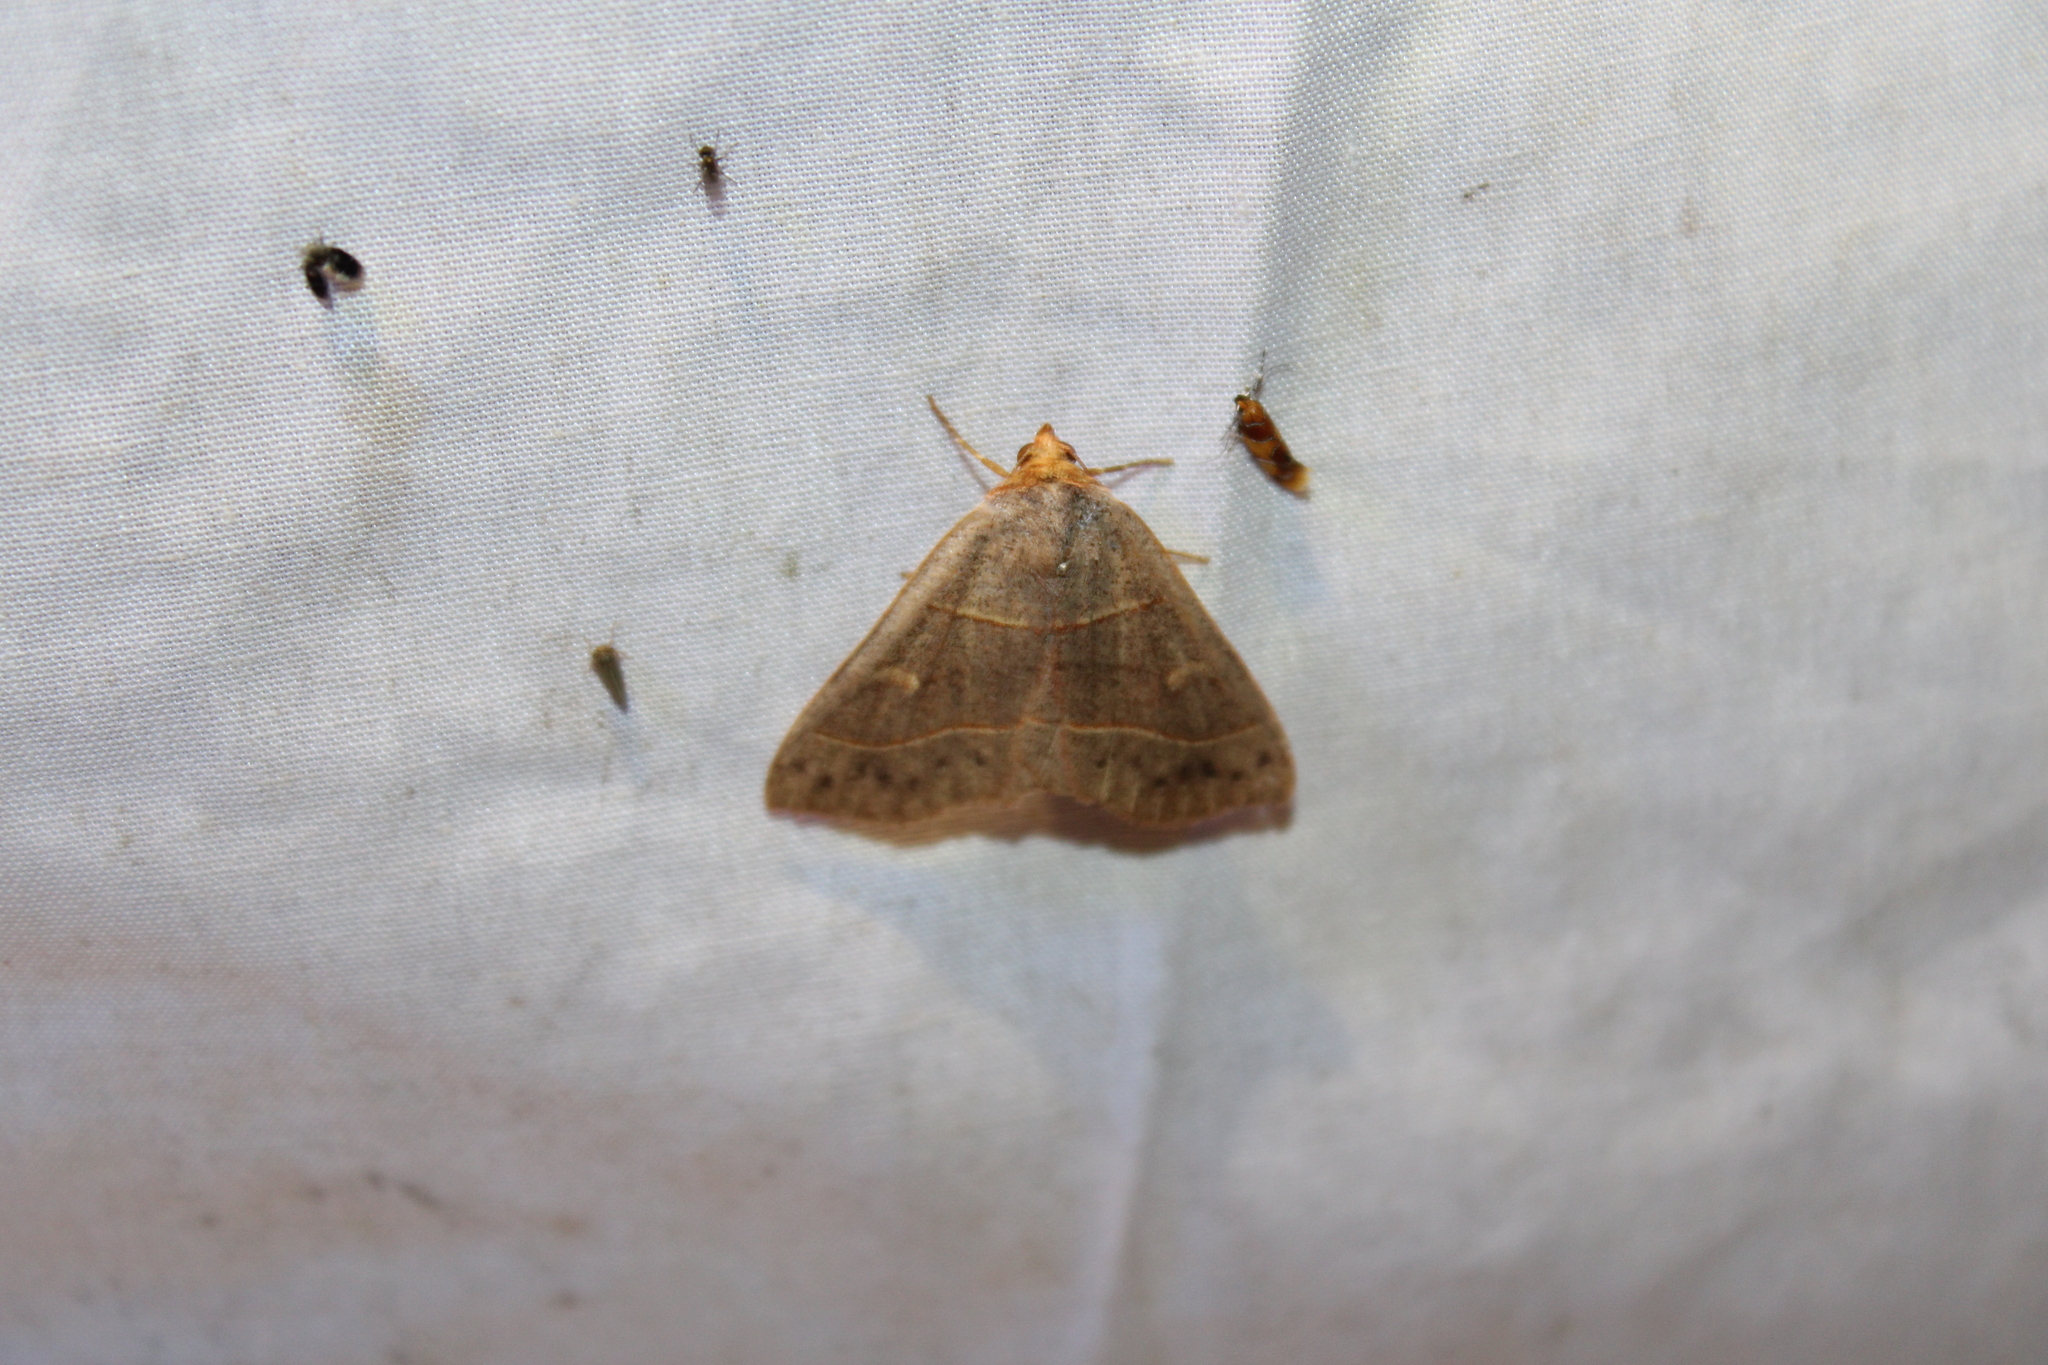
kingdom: Animalia
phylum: Arthropoda
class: Insecta
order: Lepidoptera
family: Erebidae
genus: Panopoda
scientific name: Panopoda rufimargo
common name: Red-lined panopoda moth
